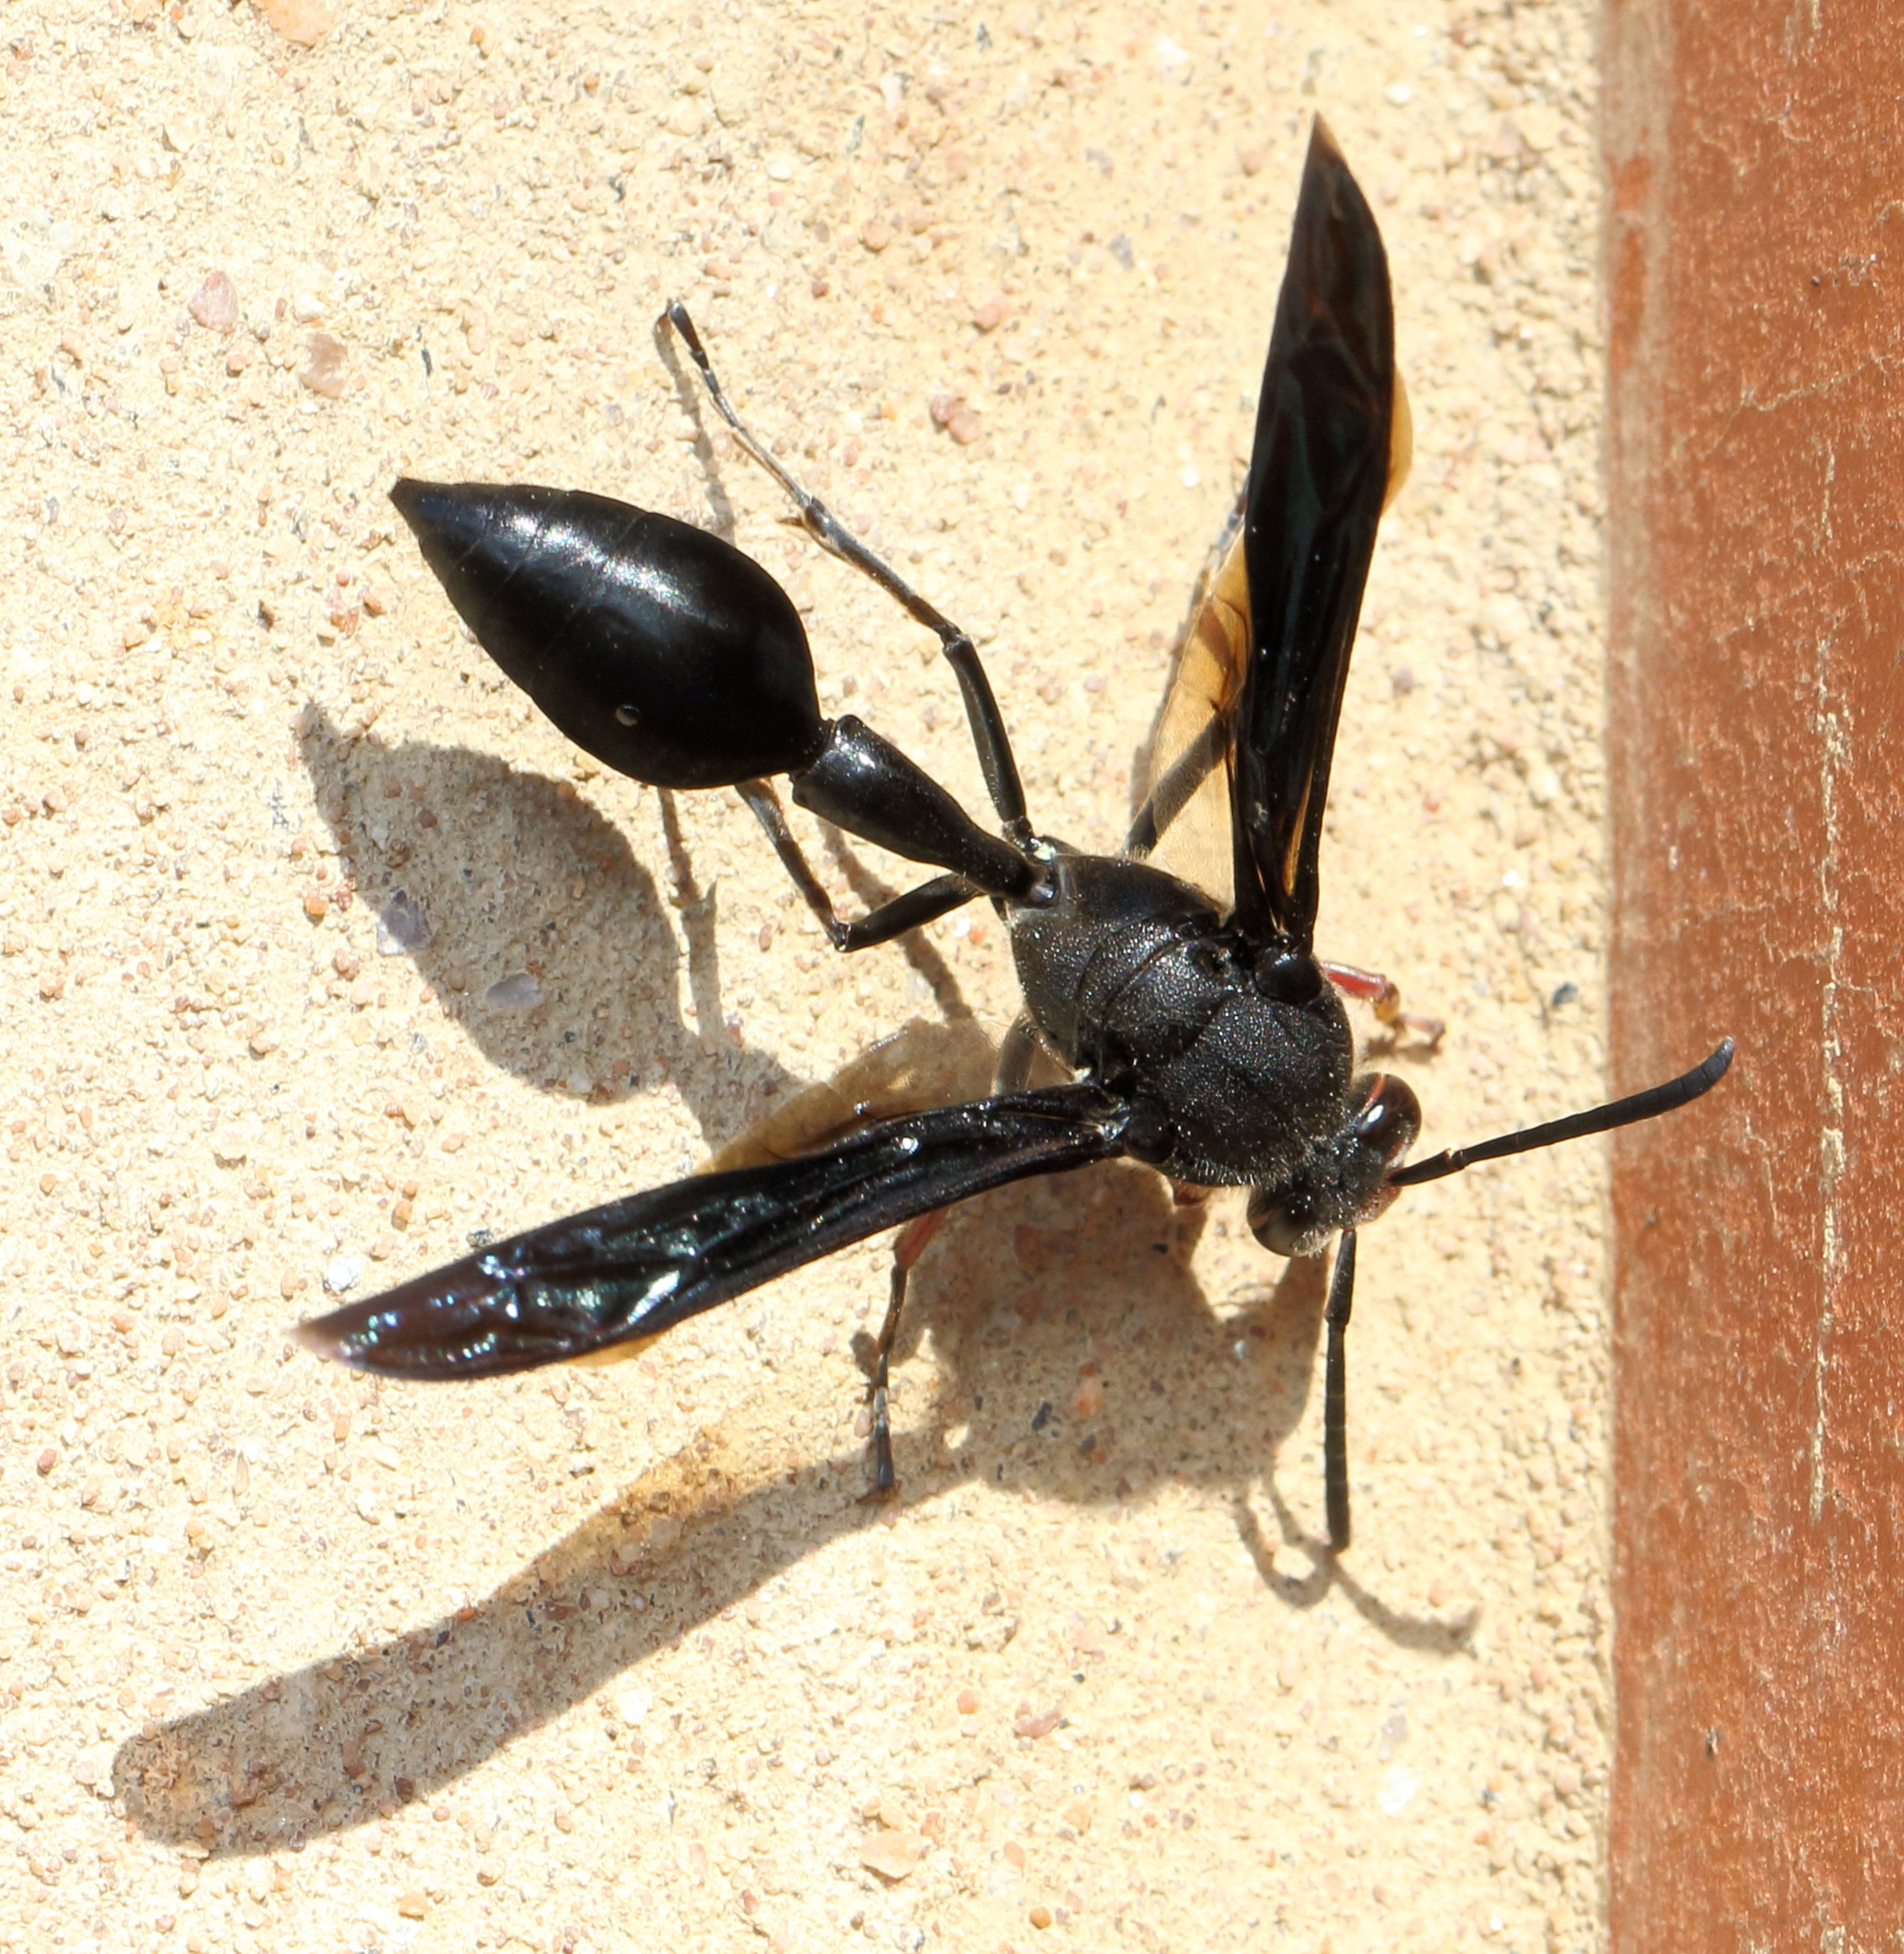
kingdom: Animalia
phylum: Arthropoda
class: Insecta
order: Hymenoptera
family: Eumenidae
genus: Delta
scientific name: Delta bonellii
